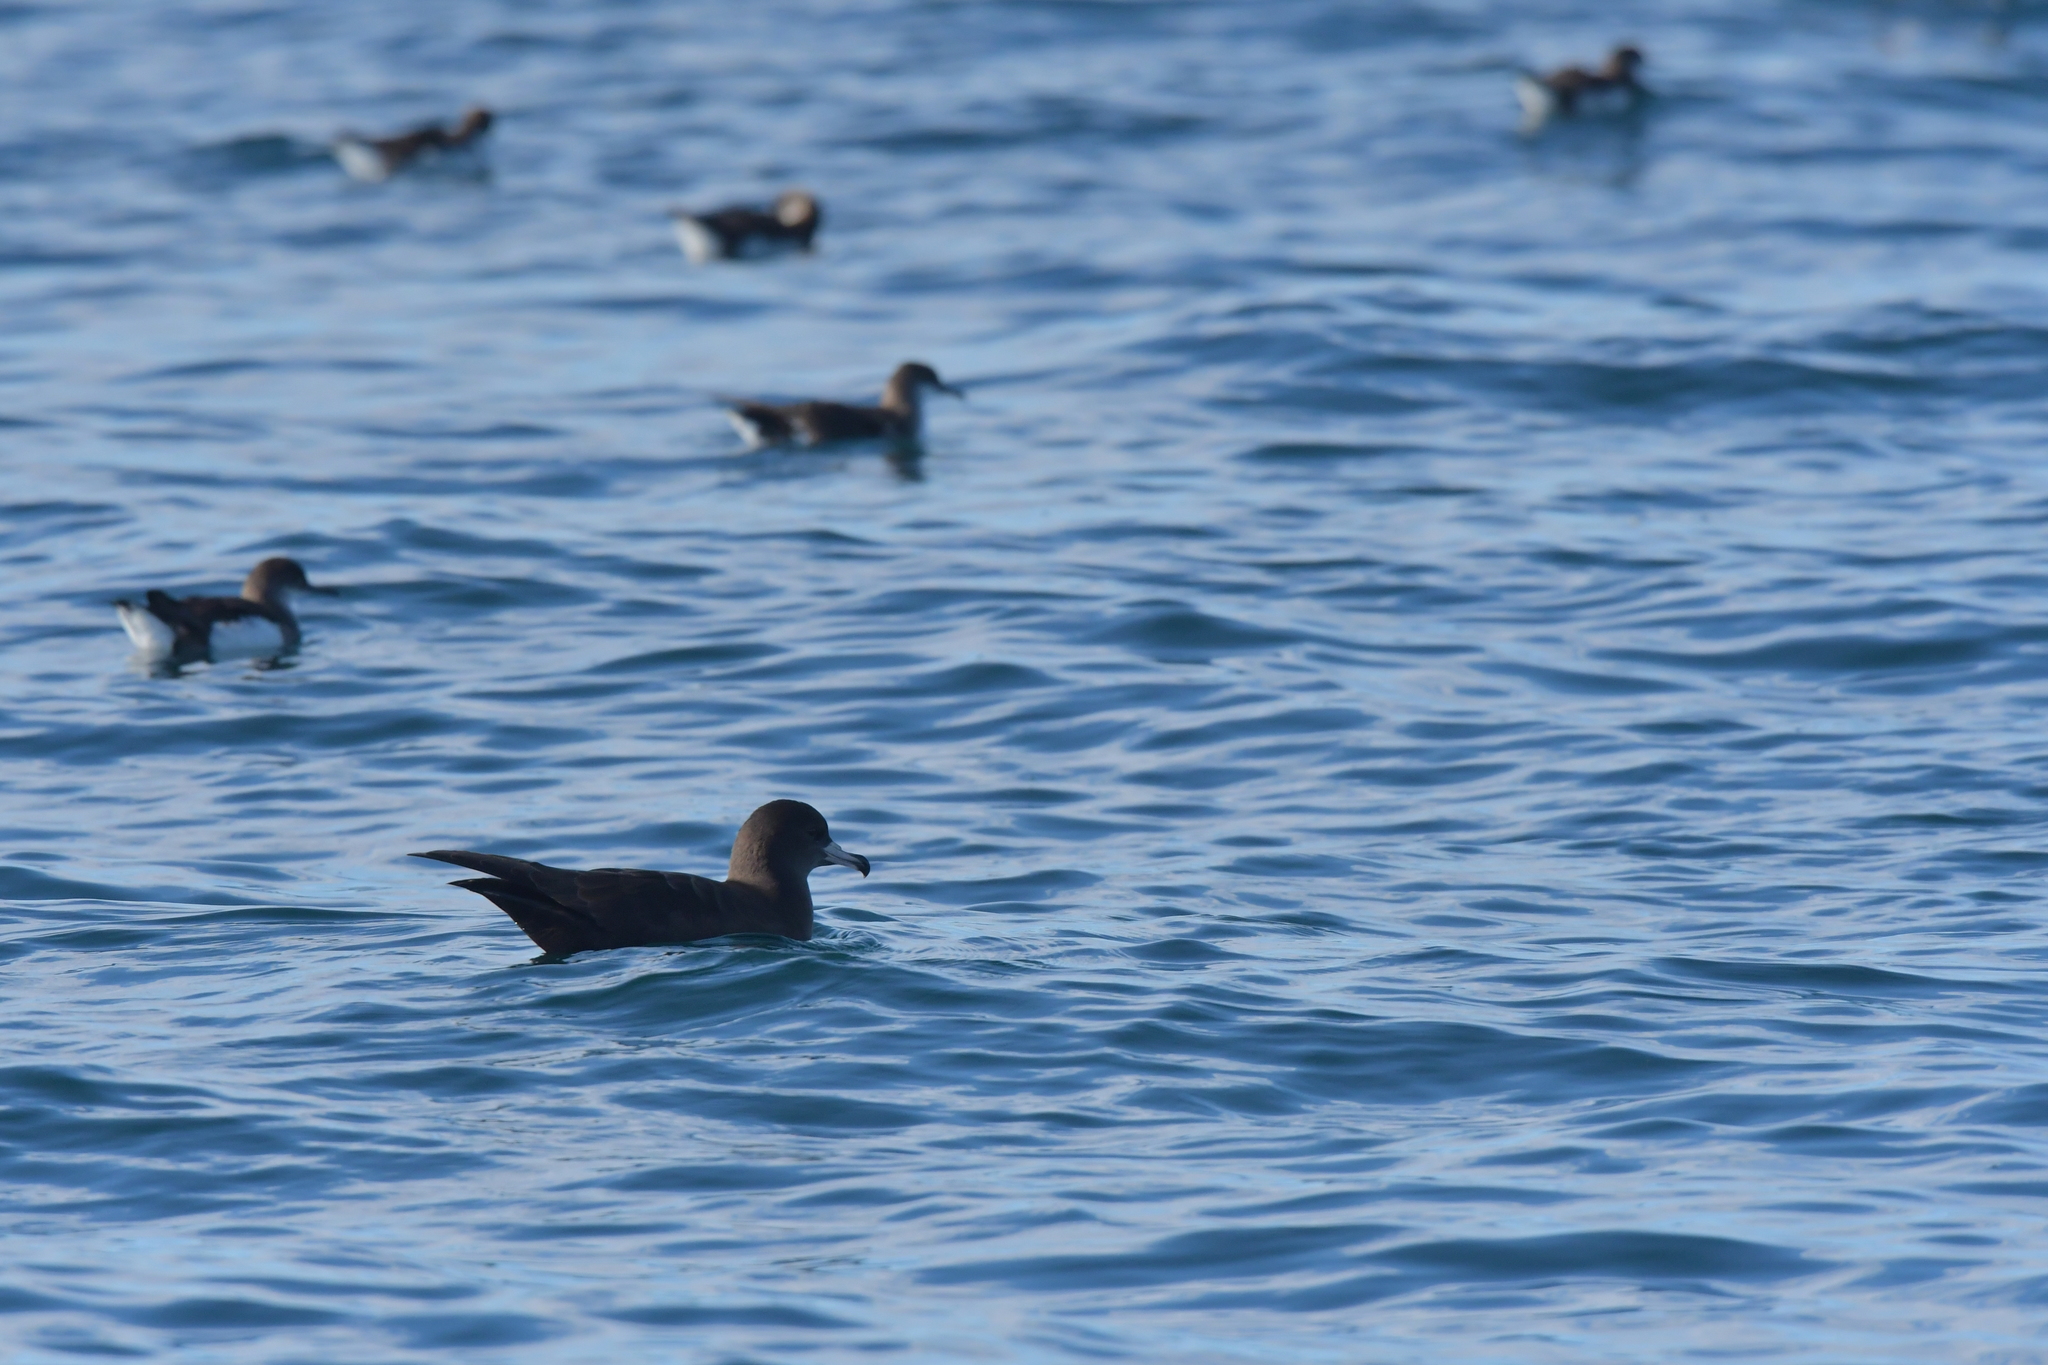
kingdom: Animalia
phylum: Chordata
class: Aves
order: Procellariiformes
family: Procellariidae
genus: Puffinus
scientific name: Puffinus carneipes
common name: Flesh-footed shearwater
